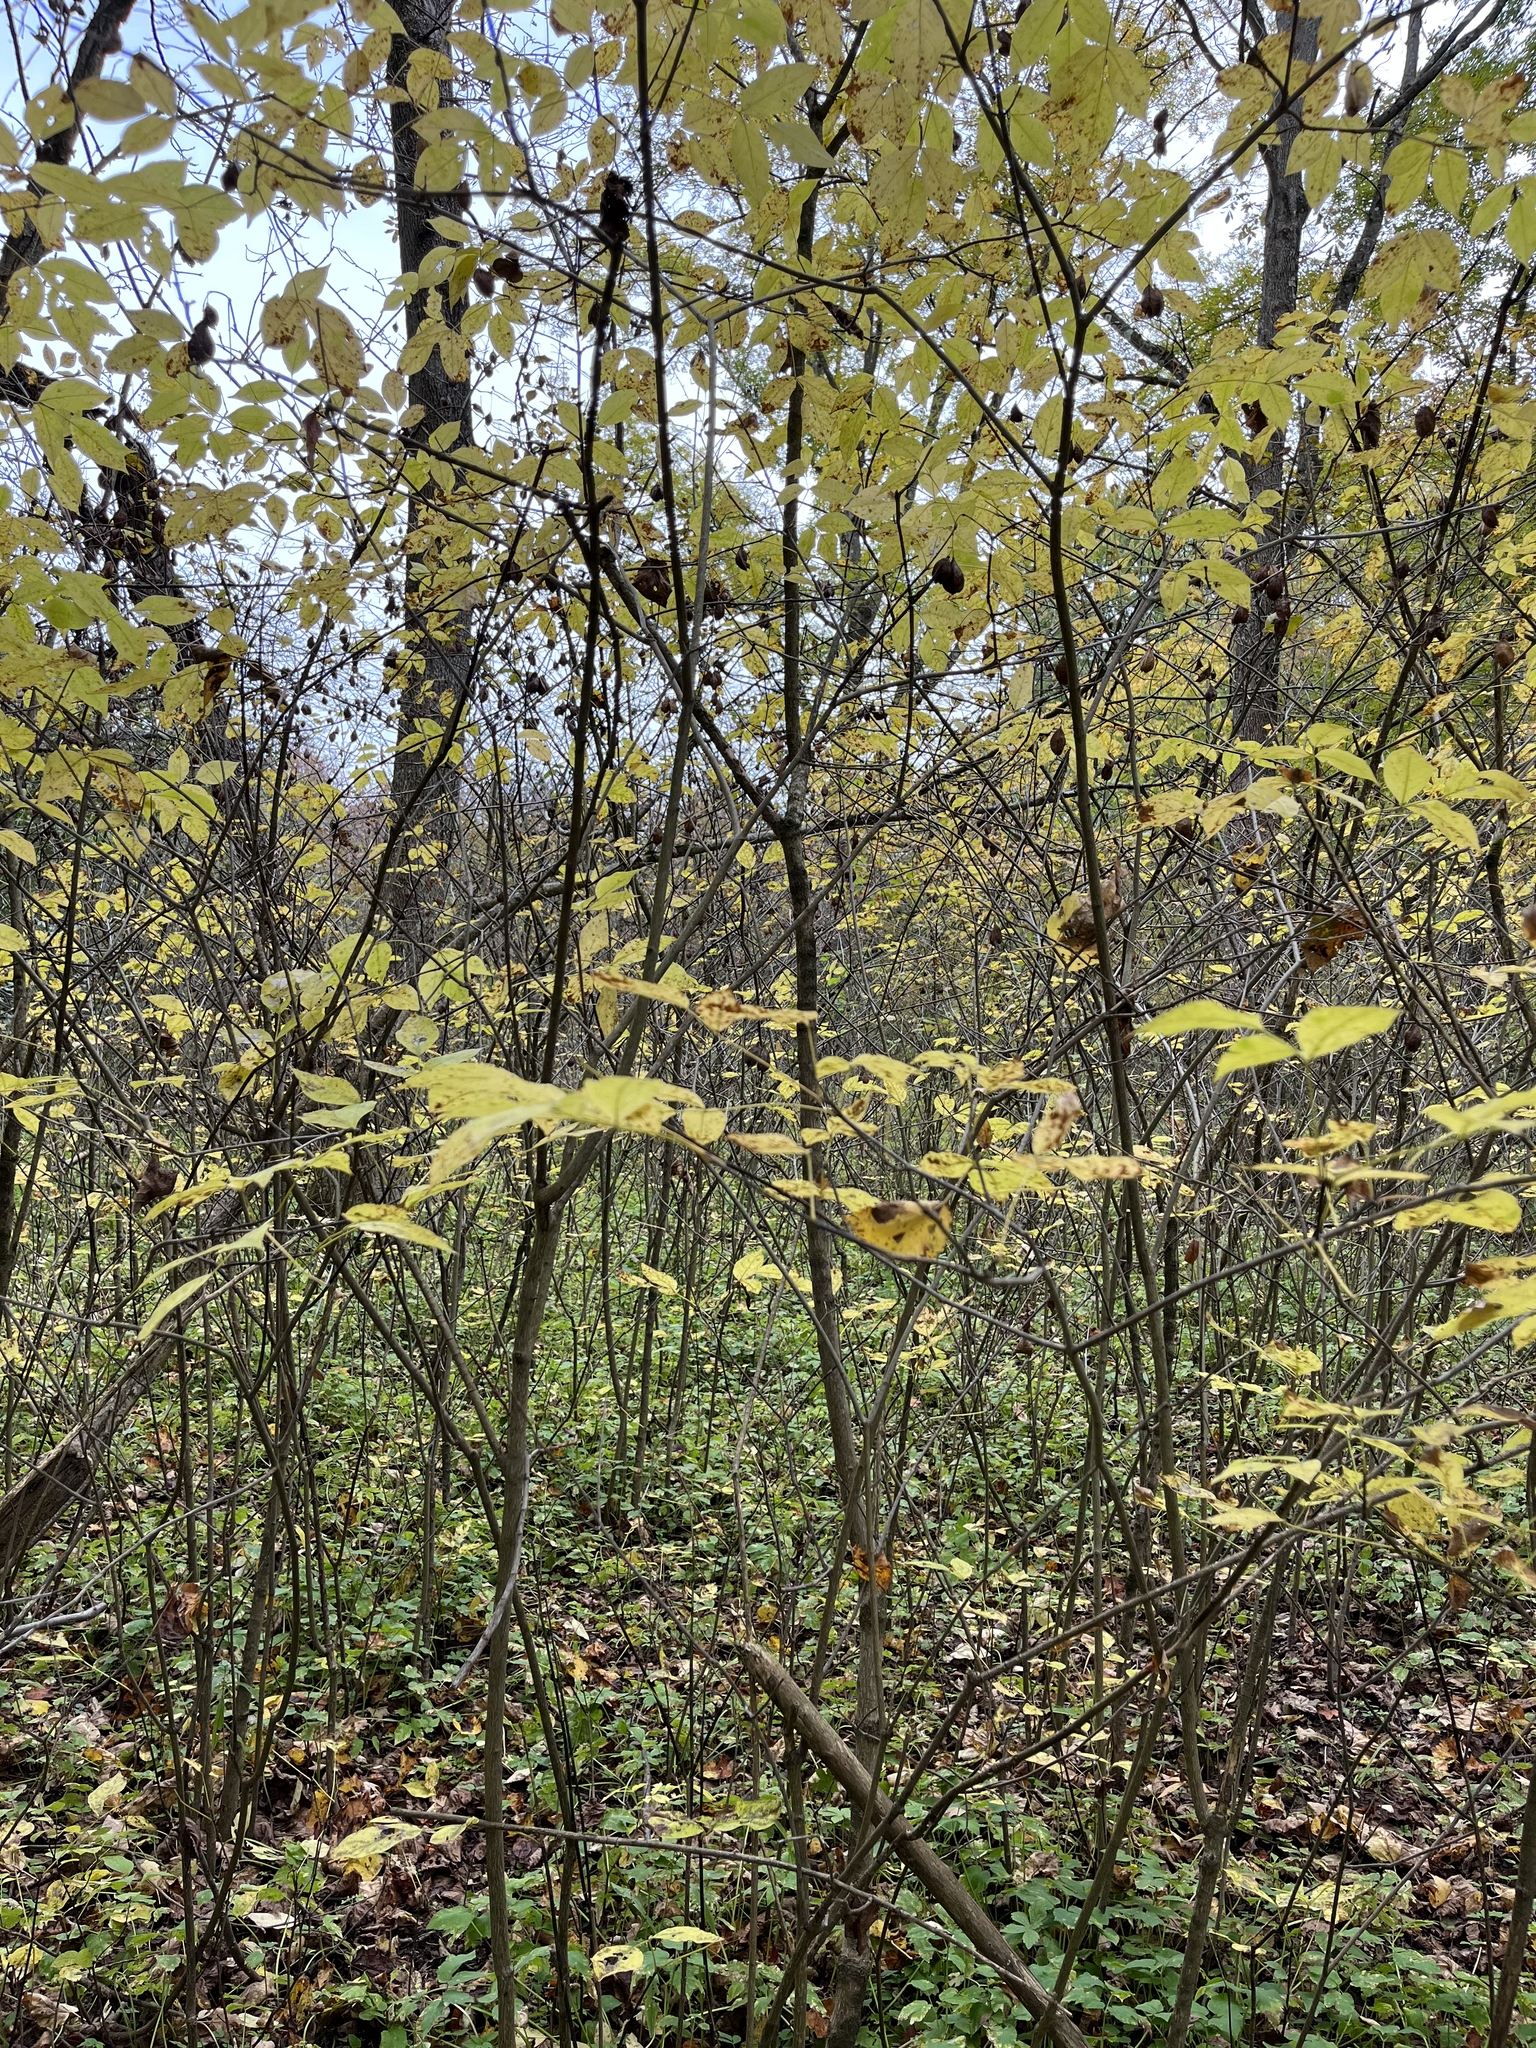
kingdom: Plantae
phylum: Tracheophyta
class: Magnoliopsida
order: Crossosomatales
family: Staphyleaceae
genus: Staphylea
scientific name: Staphylea trifolia
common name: American bladdernut
